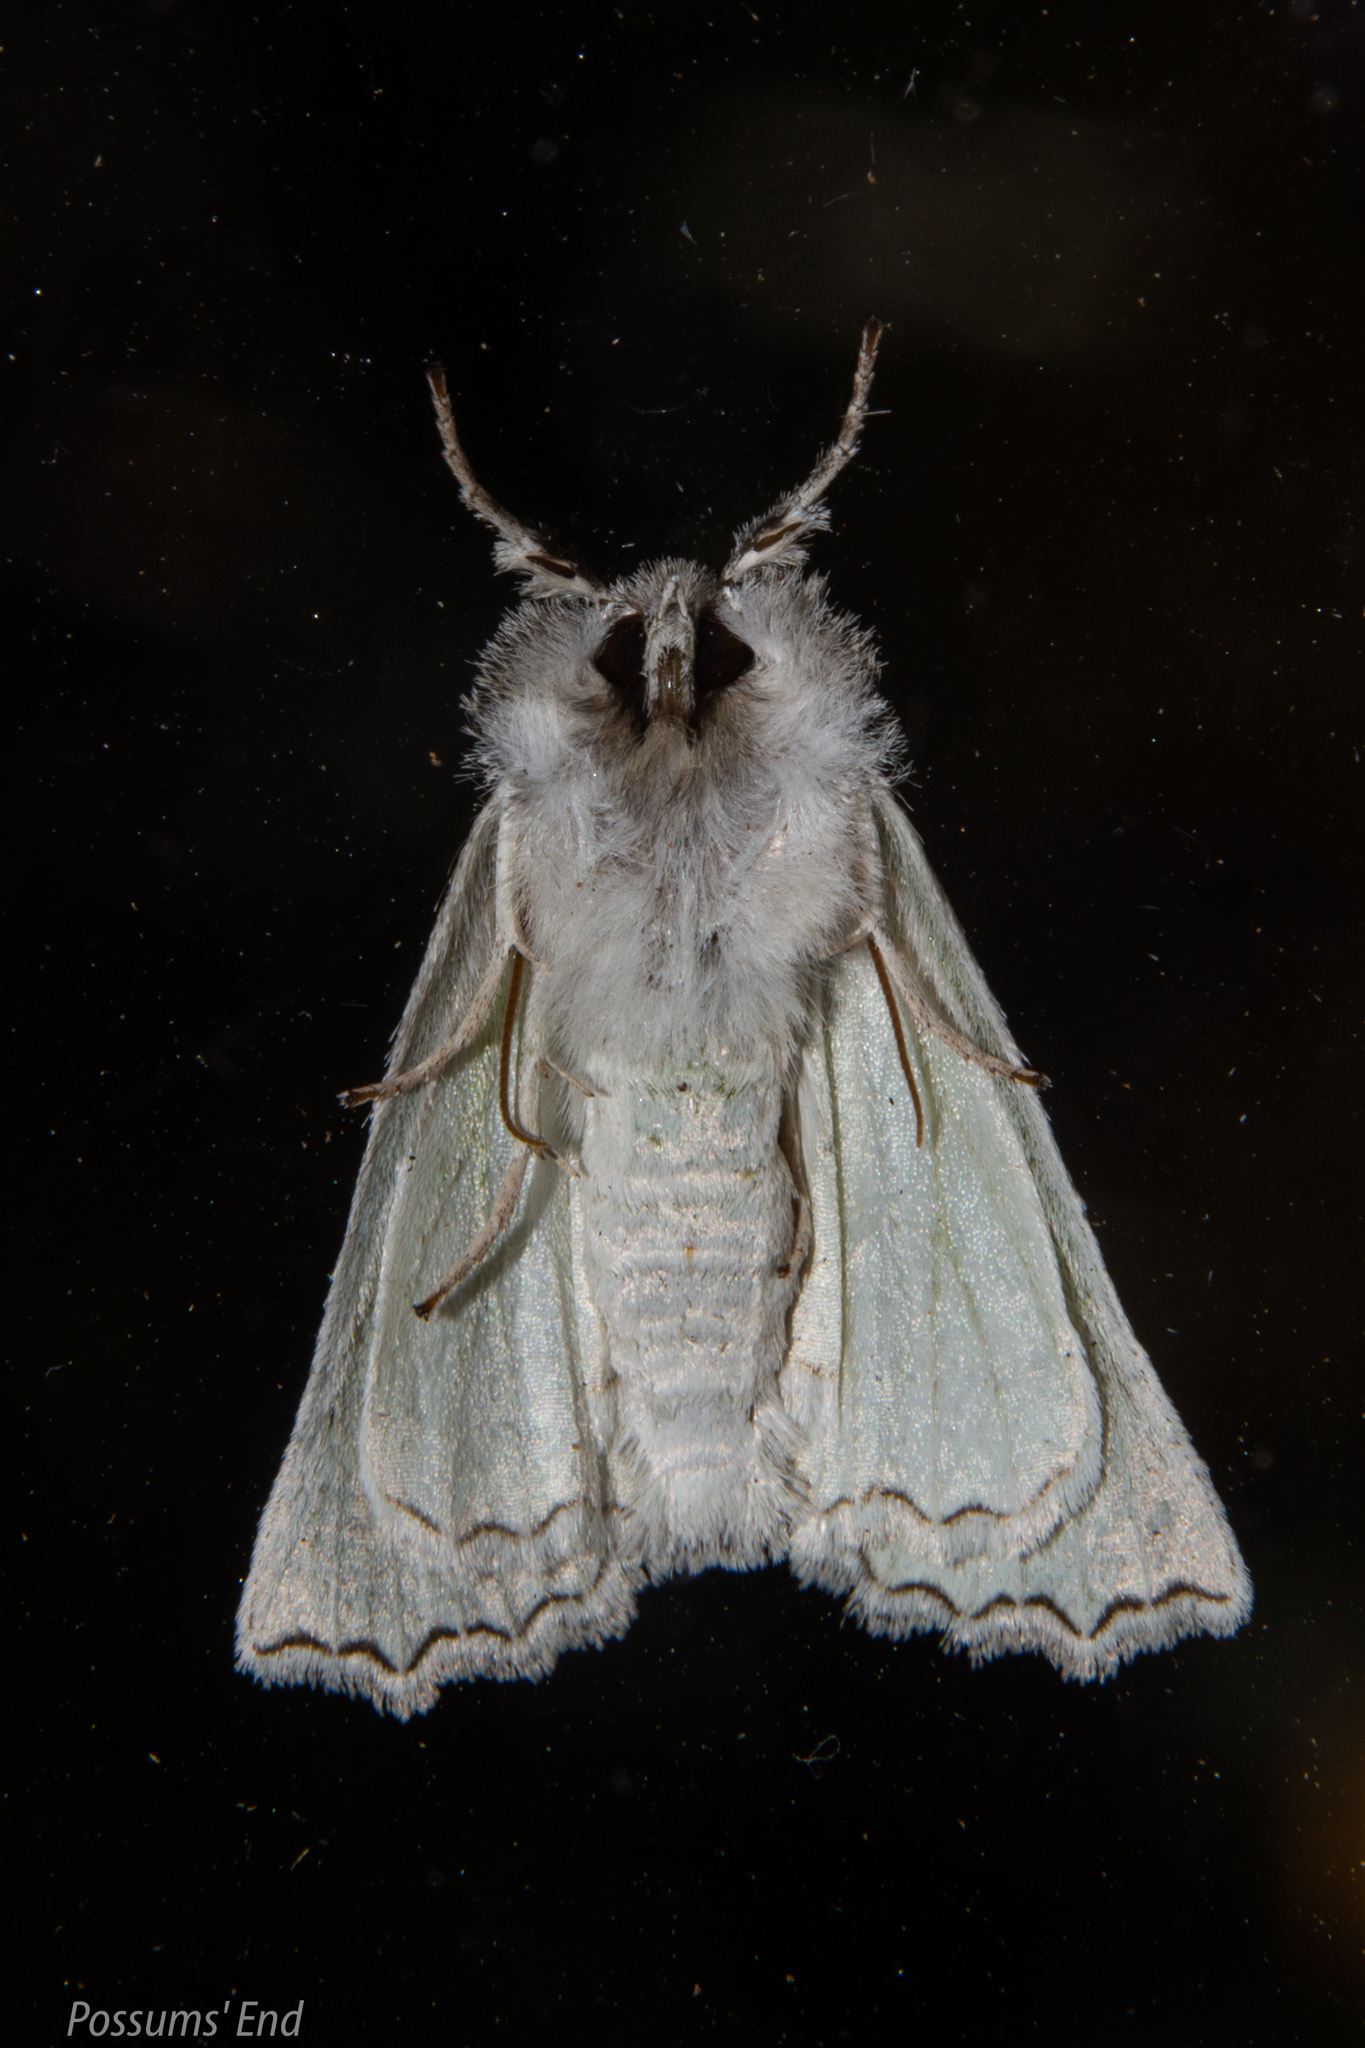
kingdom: Animalia
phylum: Arthropoda
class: Insecta
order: Lepidoptera
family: Geometridae
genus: Declana
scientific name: Declana niveata
